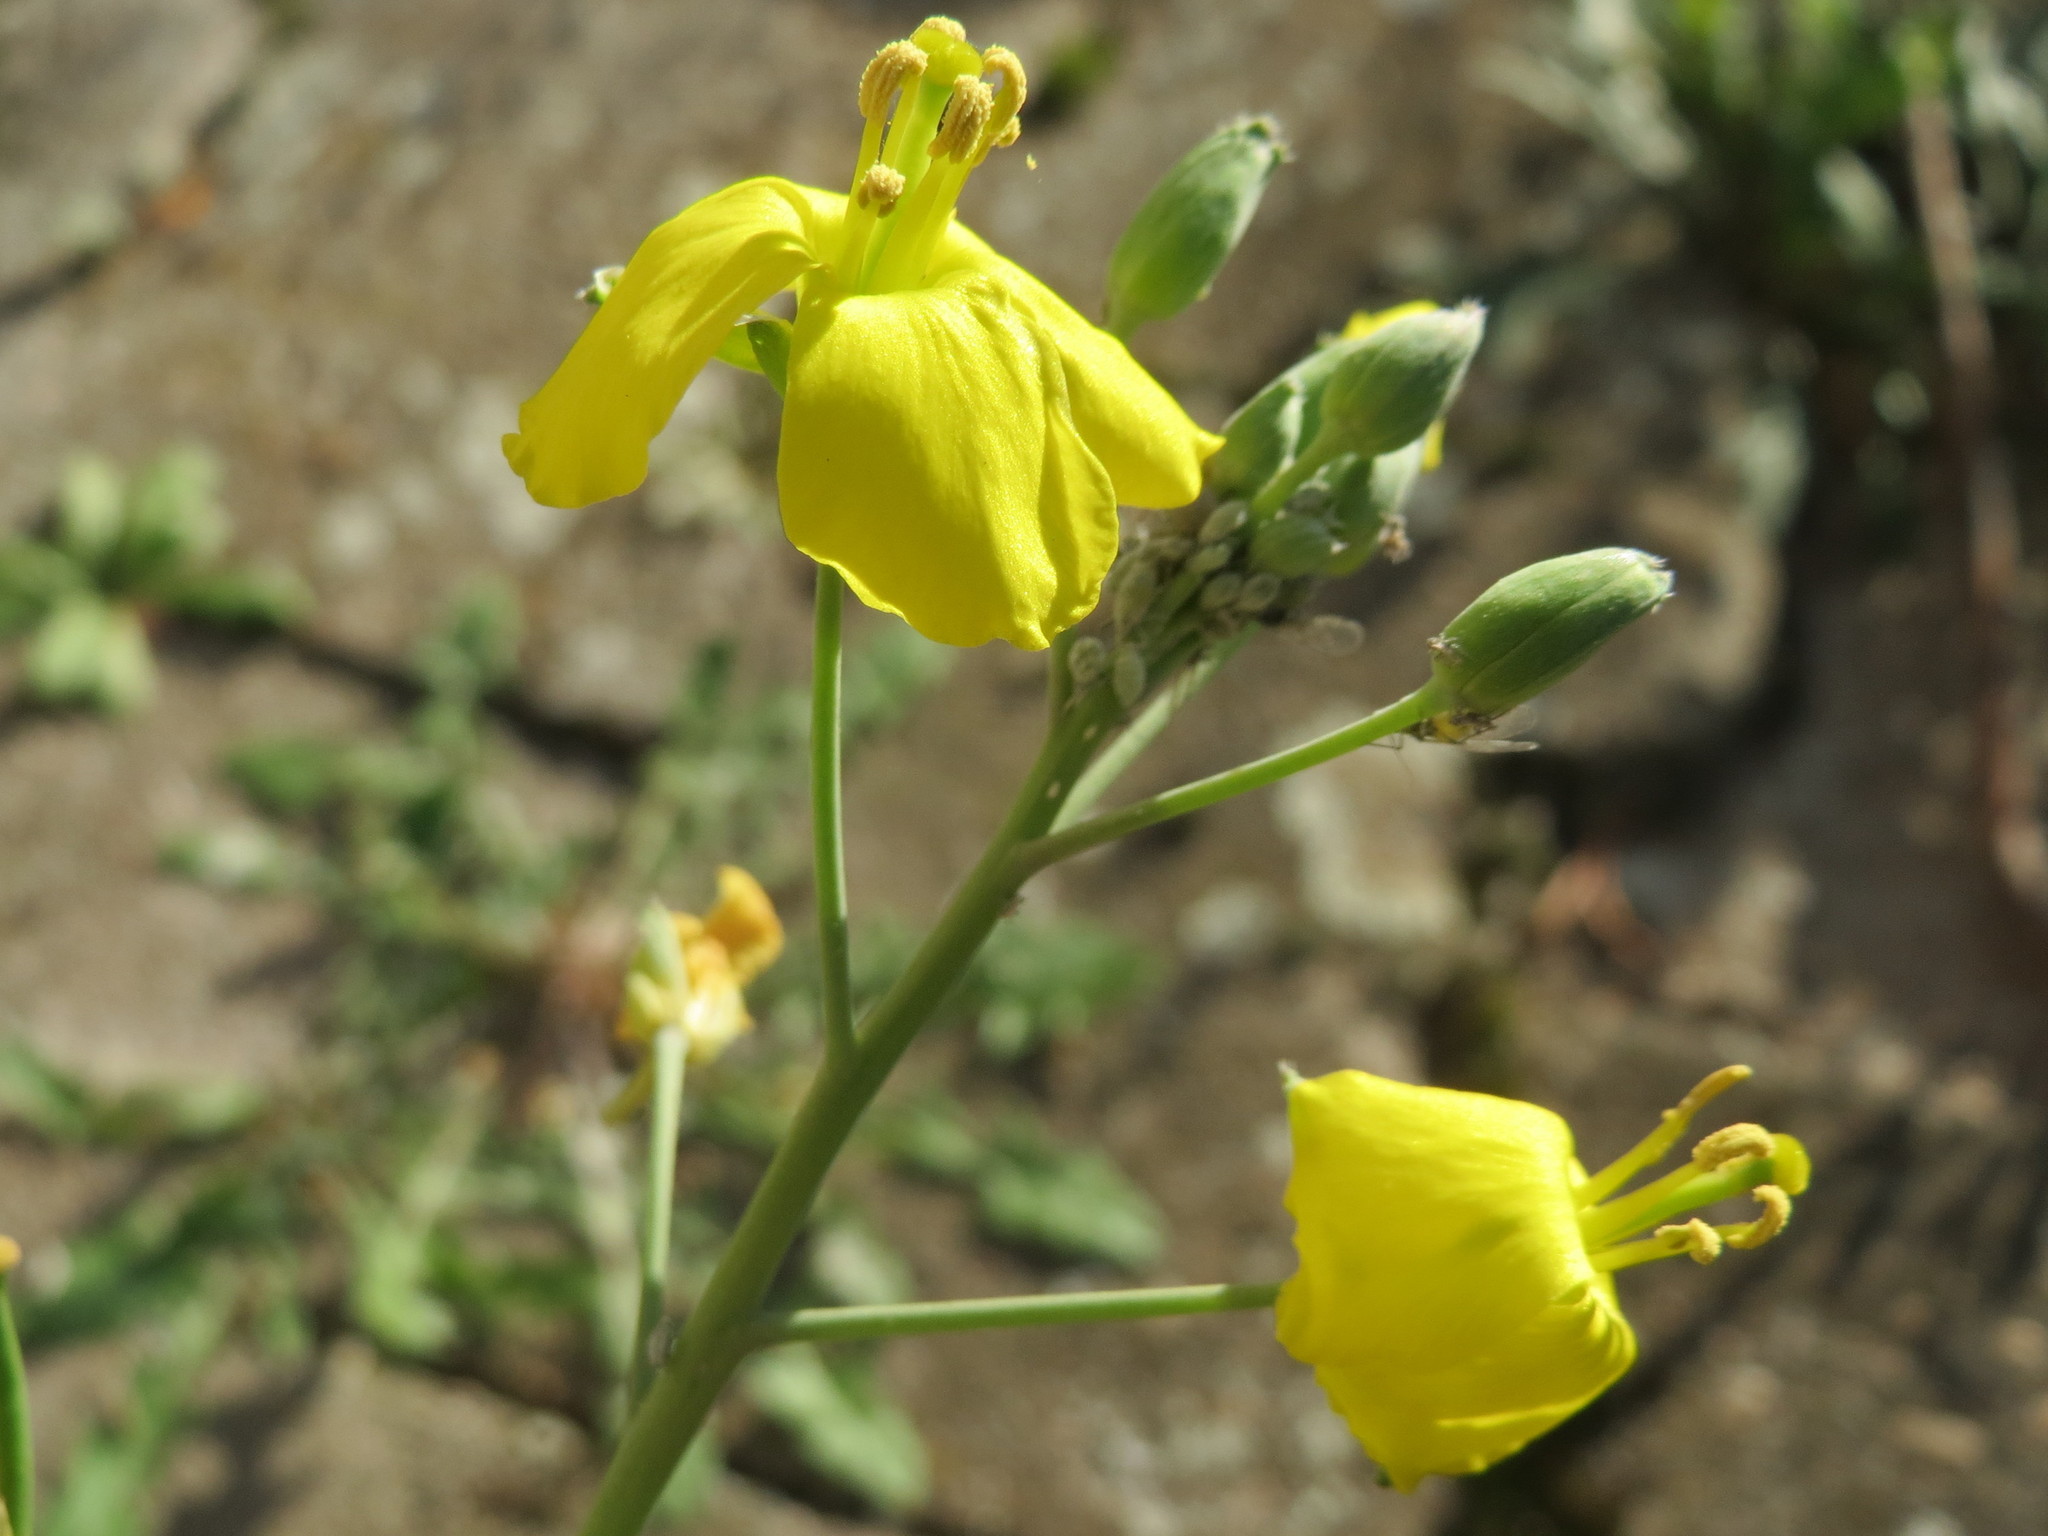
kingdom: Plantae
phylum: Tracheophyta
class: Magnoliopsida
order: Brassicales
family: Brassicaceae
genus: Diplotaxis
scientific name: Diplotaxis tenuifolia
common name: Perennial wall-rocket
